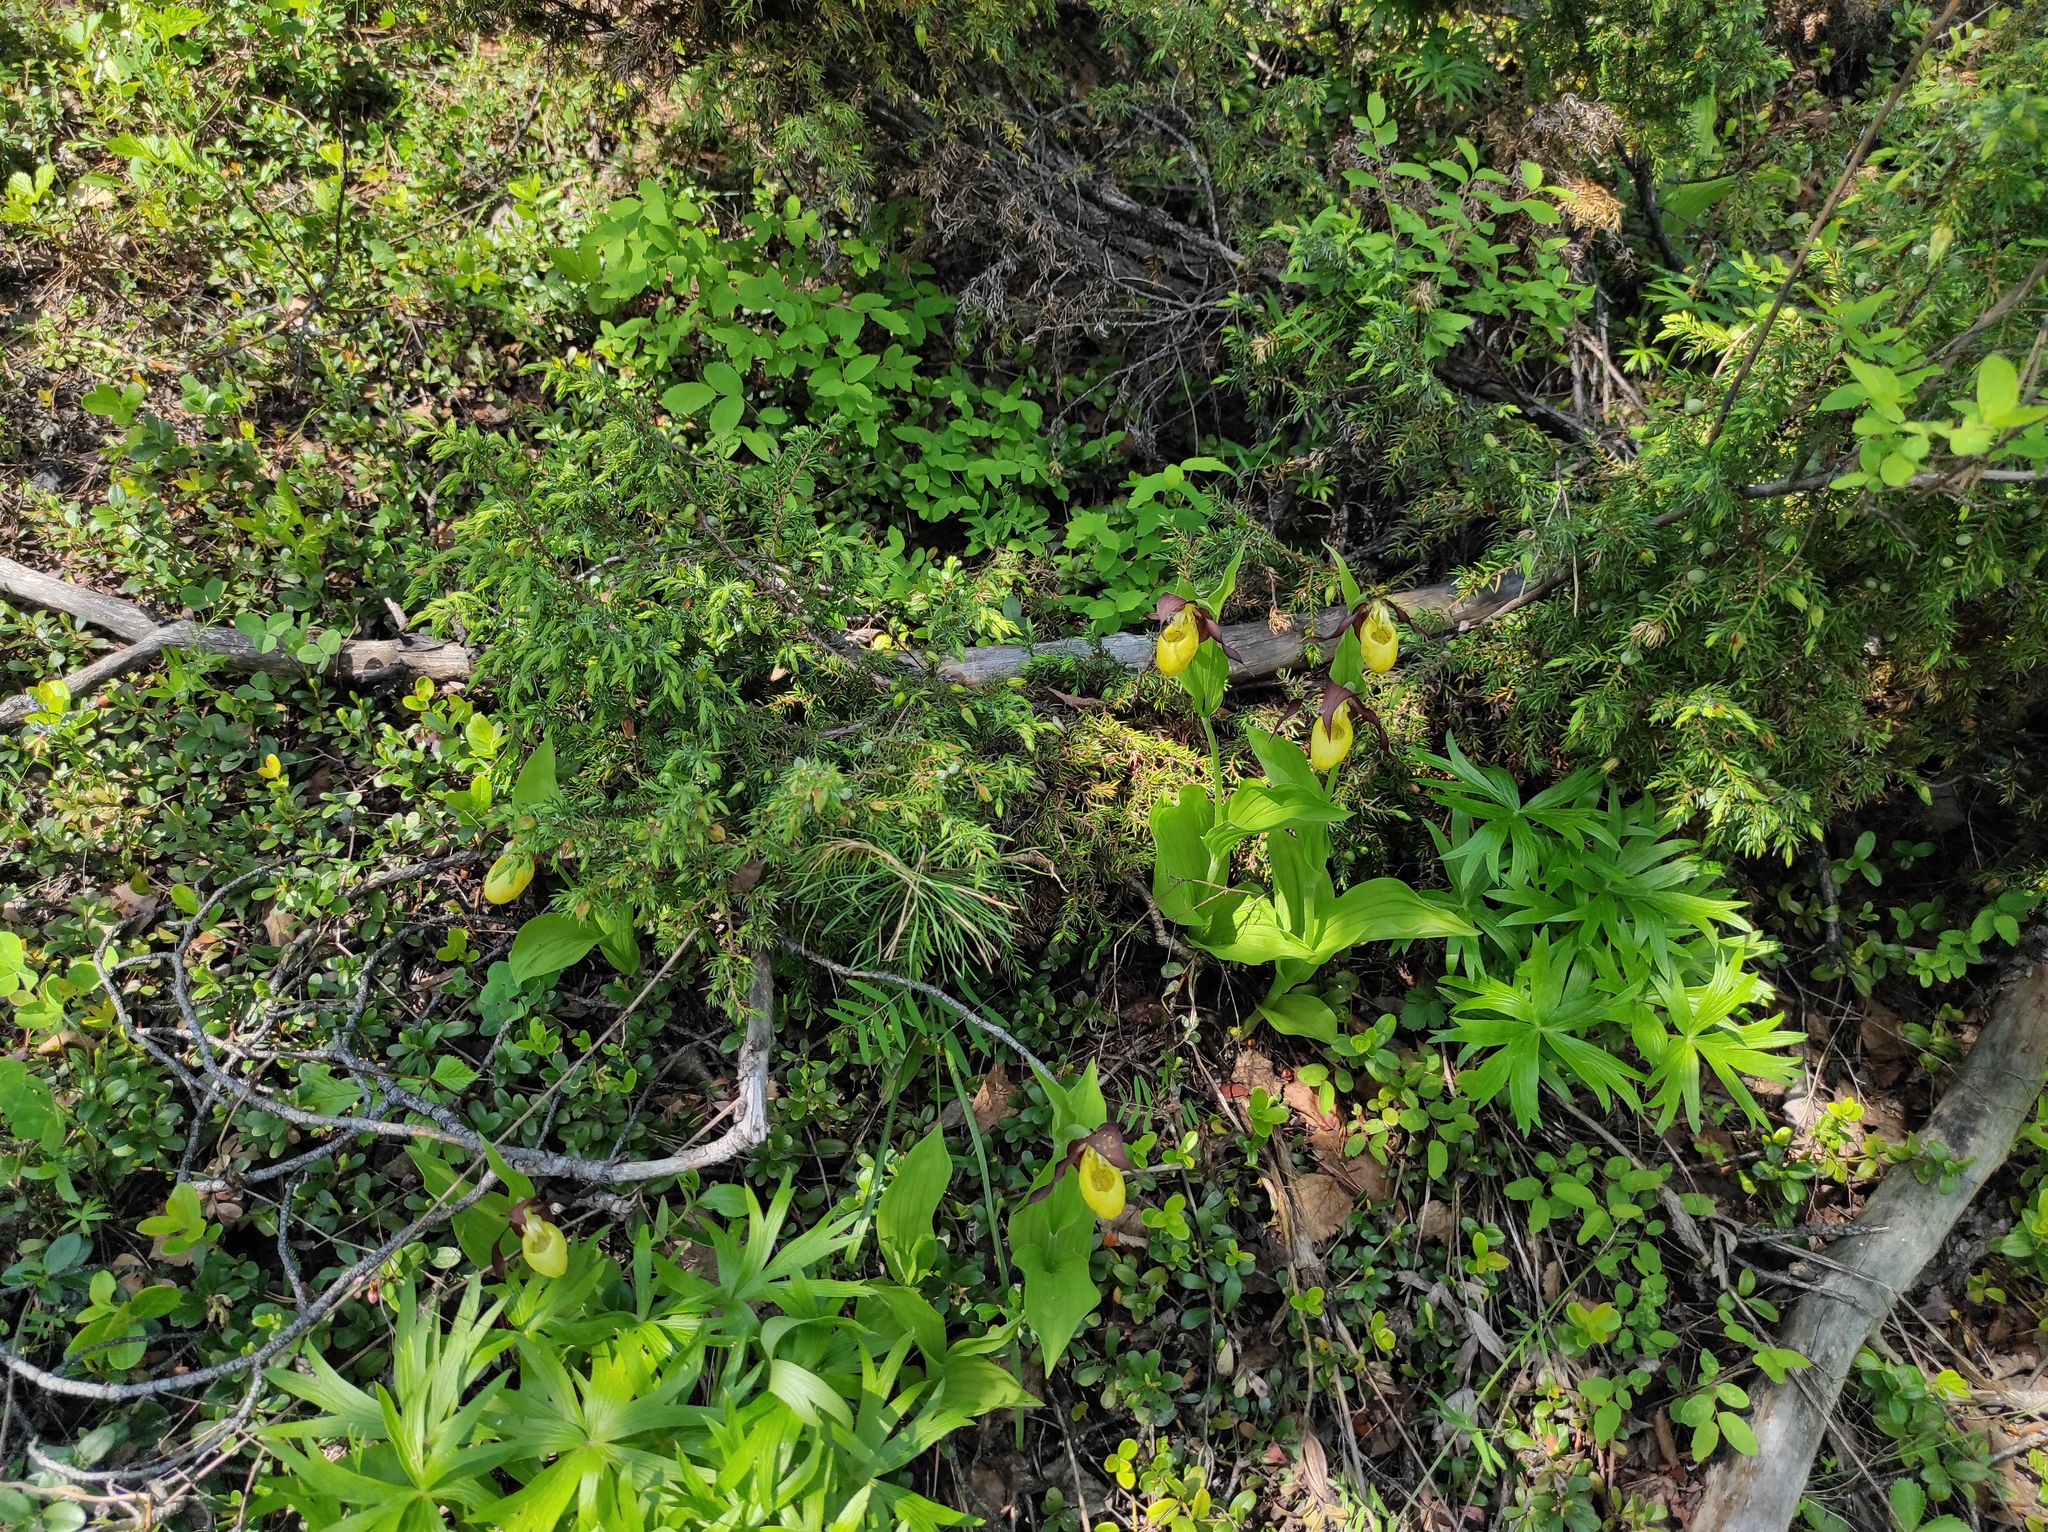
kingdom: Plantae
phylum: Tracheophyta
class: Liliopsida
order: Asparagales
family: Orchidaceae
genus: Cypripedium
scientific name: Cypripedium calceolus
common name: Lady's-slipper
